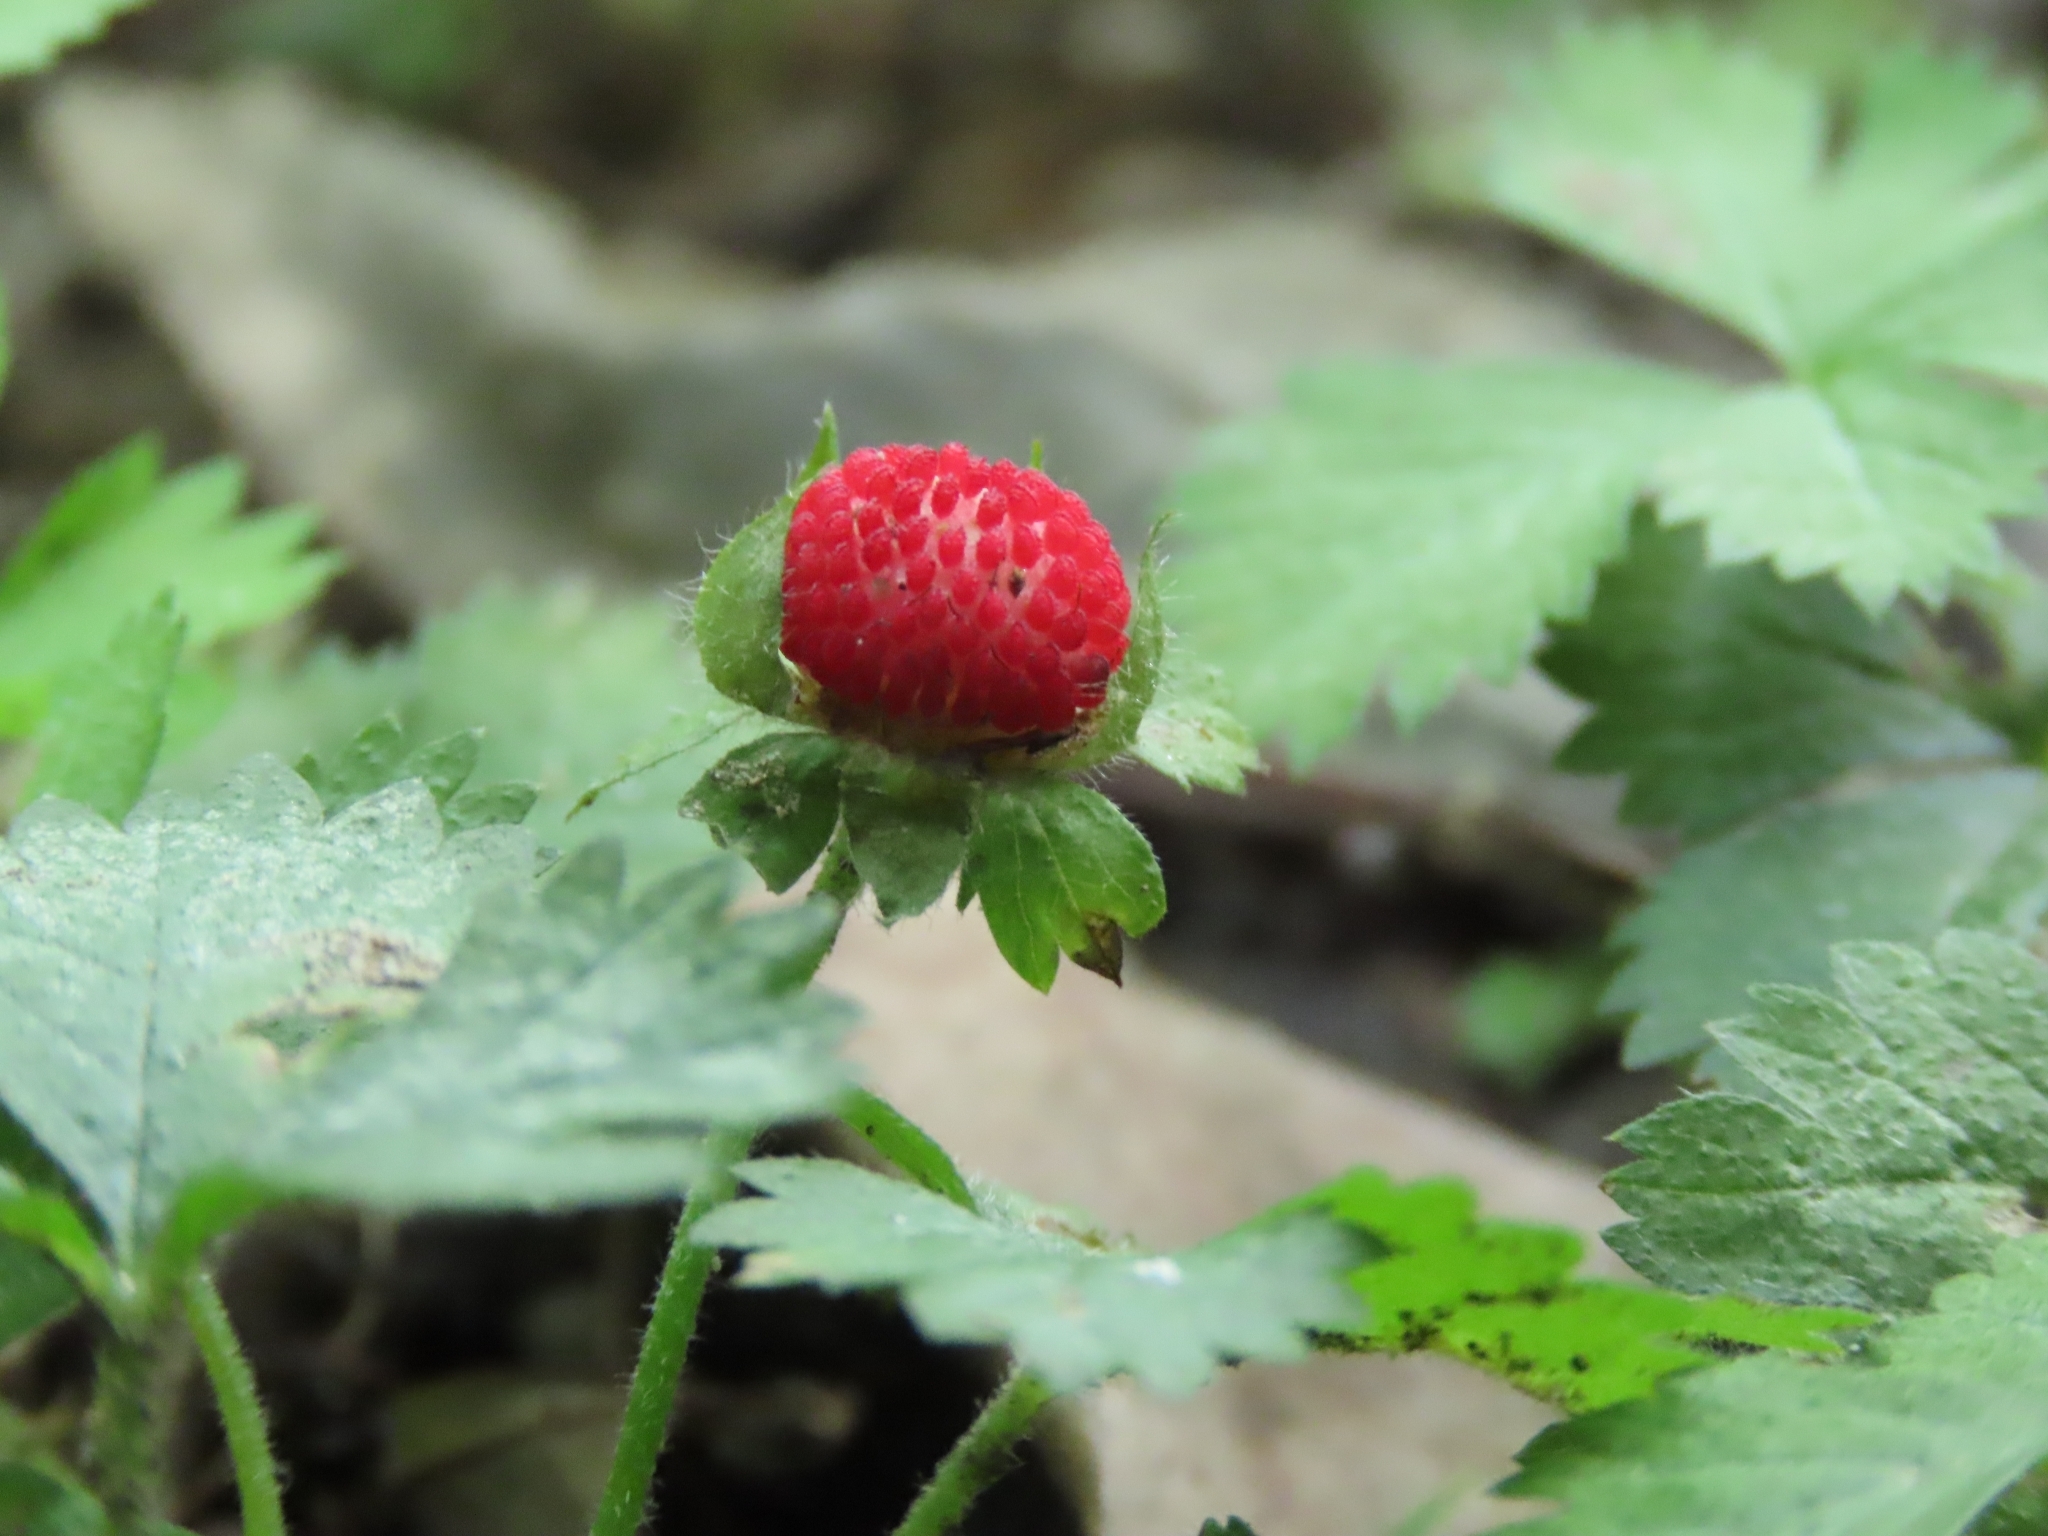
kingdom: Plantae
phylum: Tracheophyta
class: Magnoliopsida
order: Rosales
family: Rosaceae
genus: Potentilla
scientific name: Potentilla wallichiana
